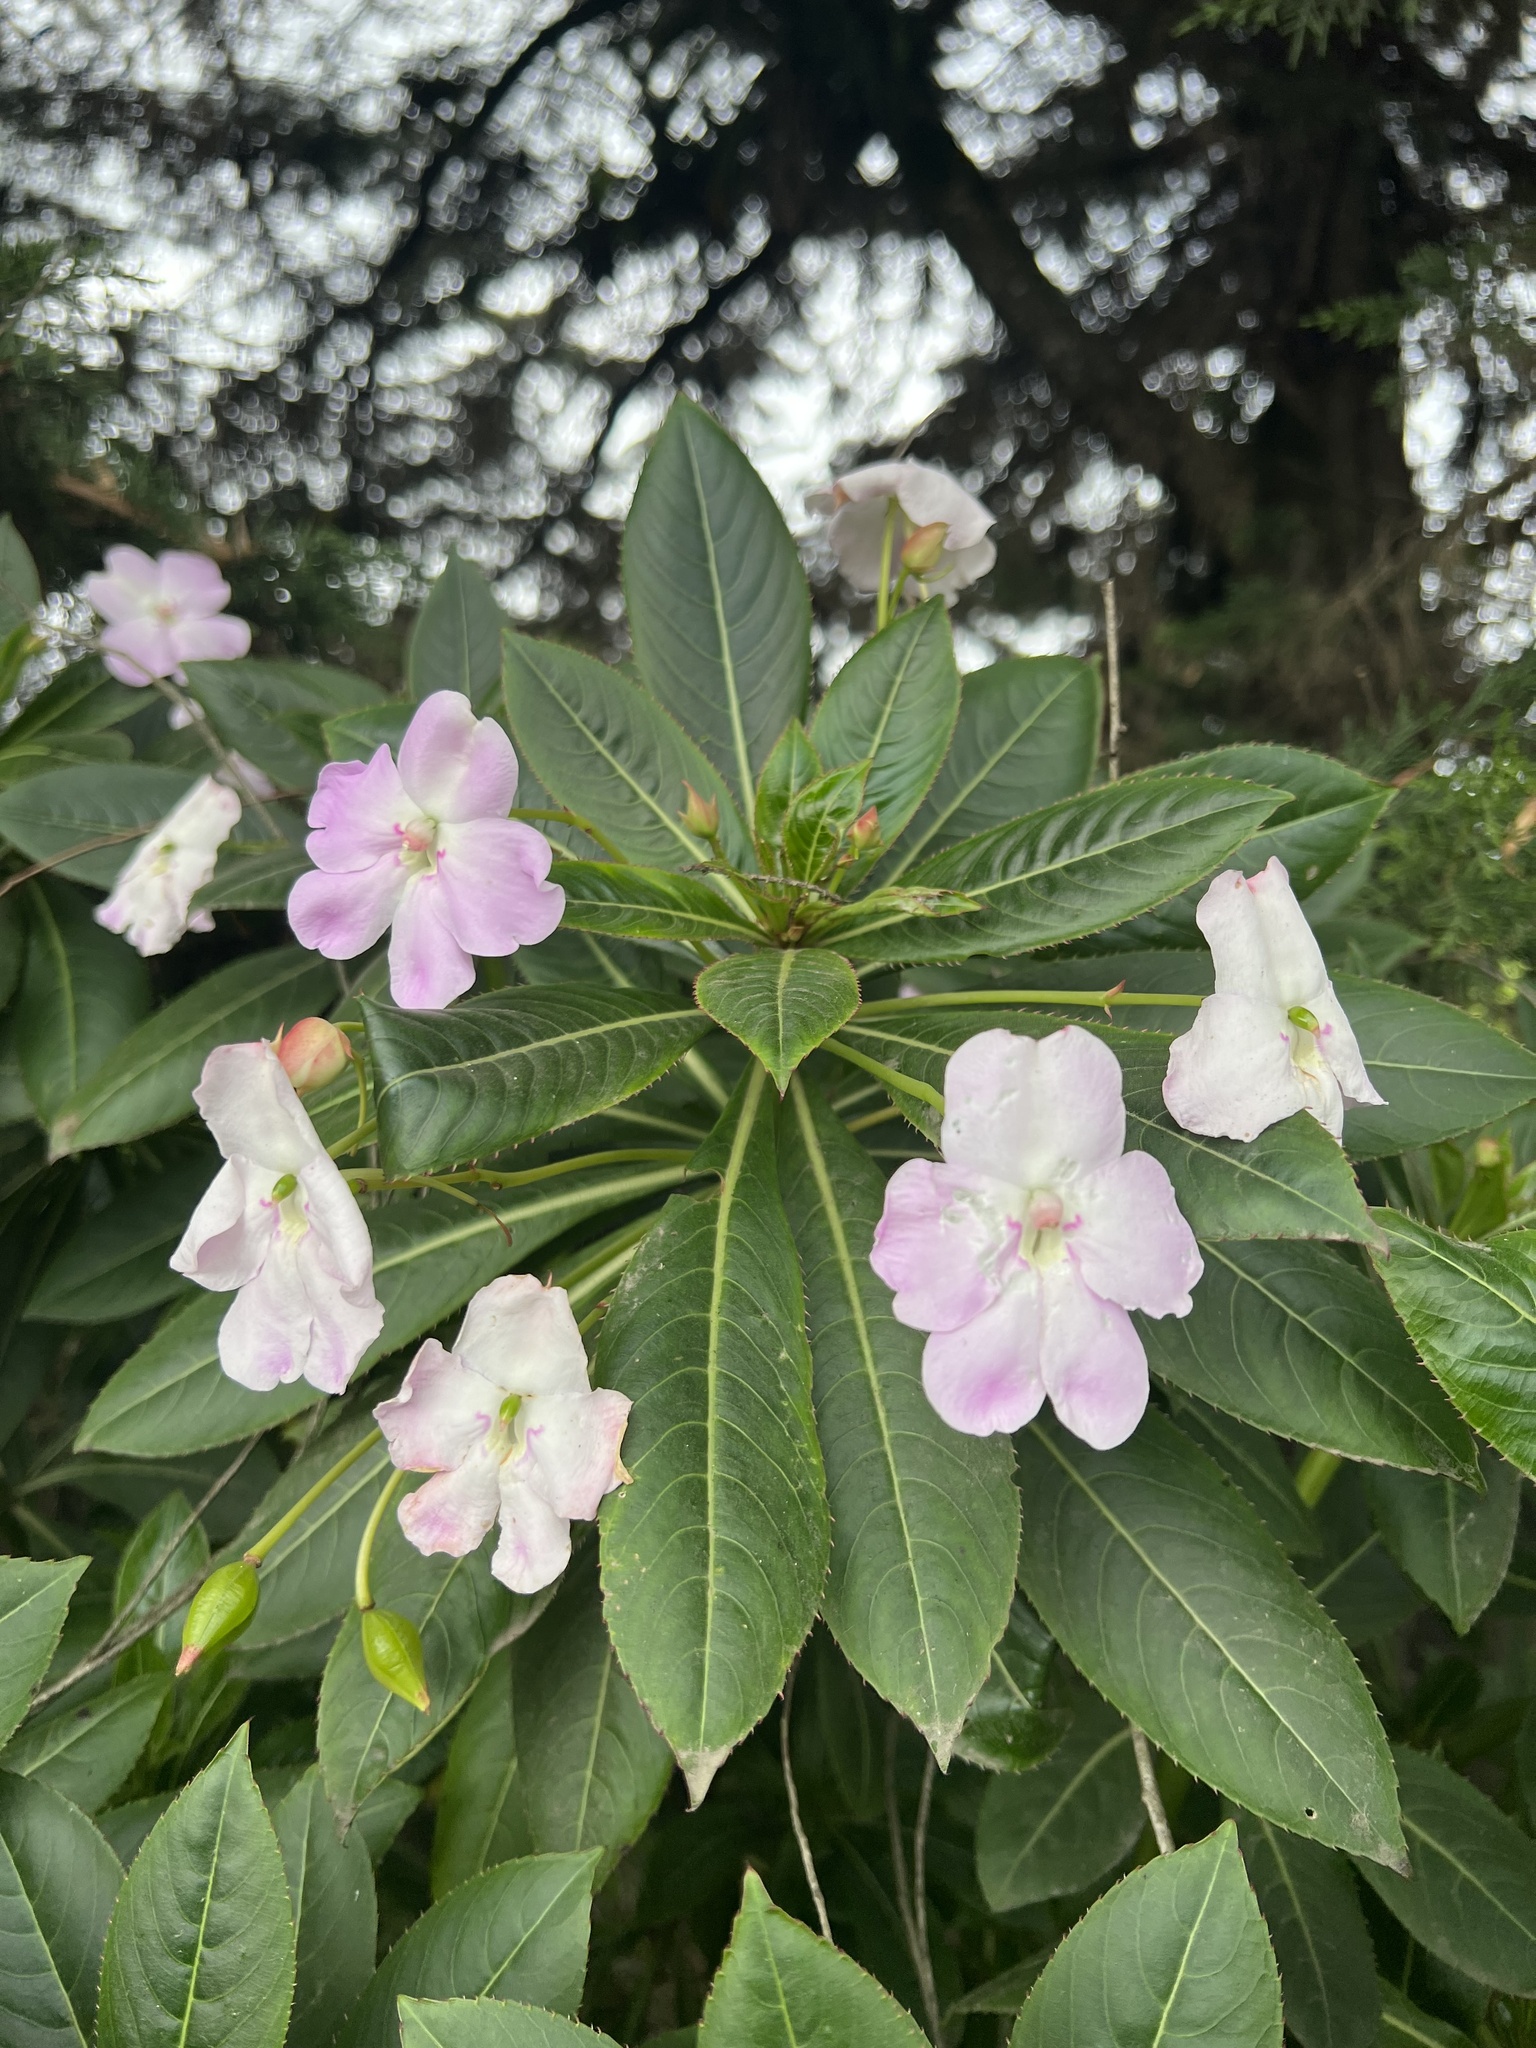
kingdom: Plantae
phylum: Tracheophyta
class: Magnoliopsida
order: Ericales
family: Balsaminaceae
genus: Impatiens
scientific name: Impatiens sodenii
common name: Oliver's touch-me-not
